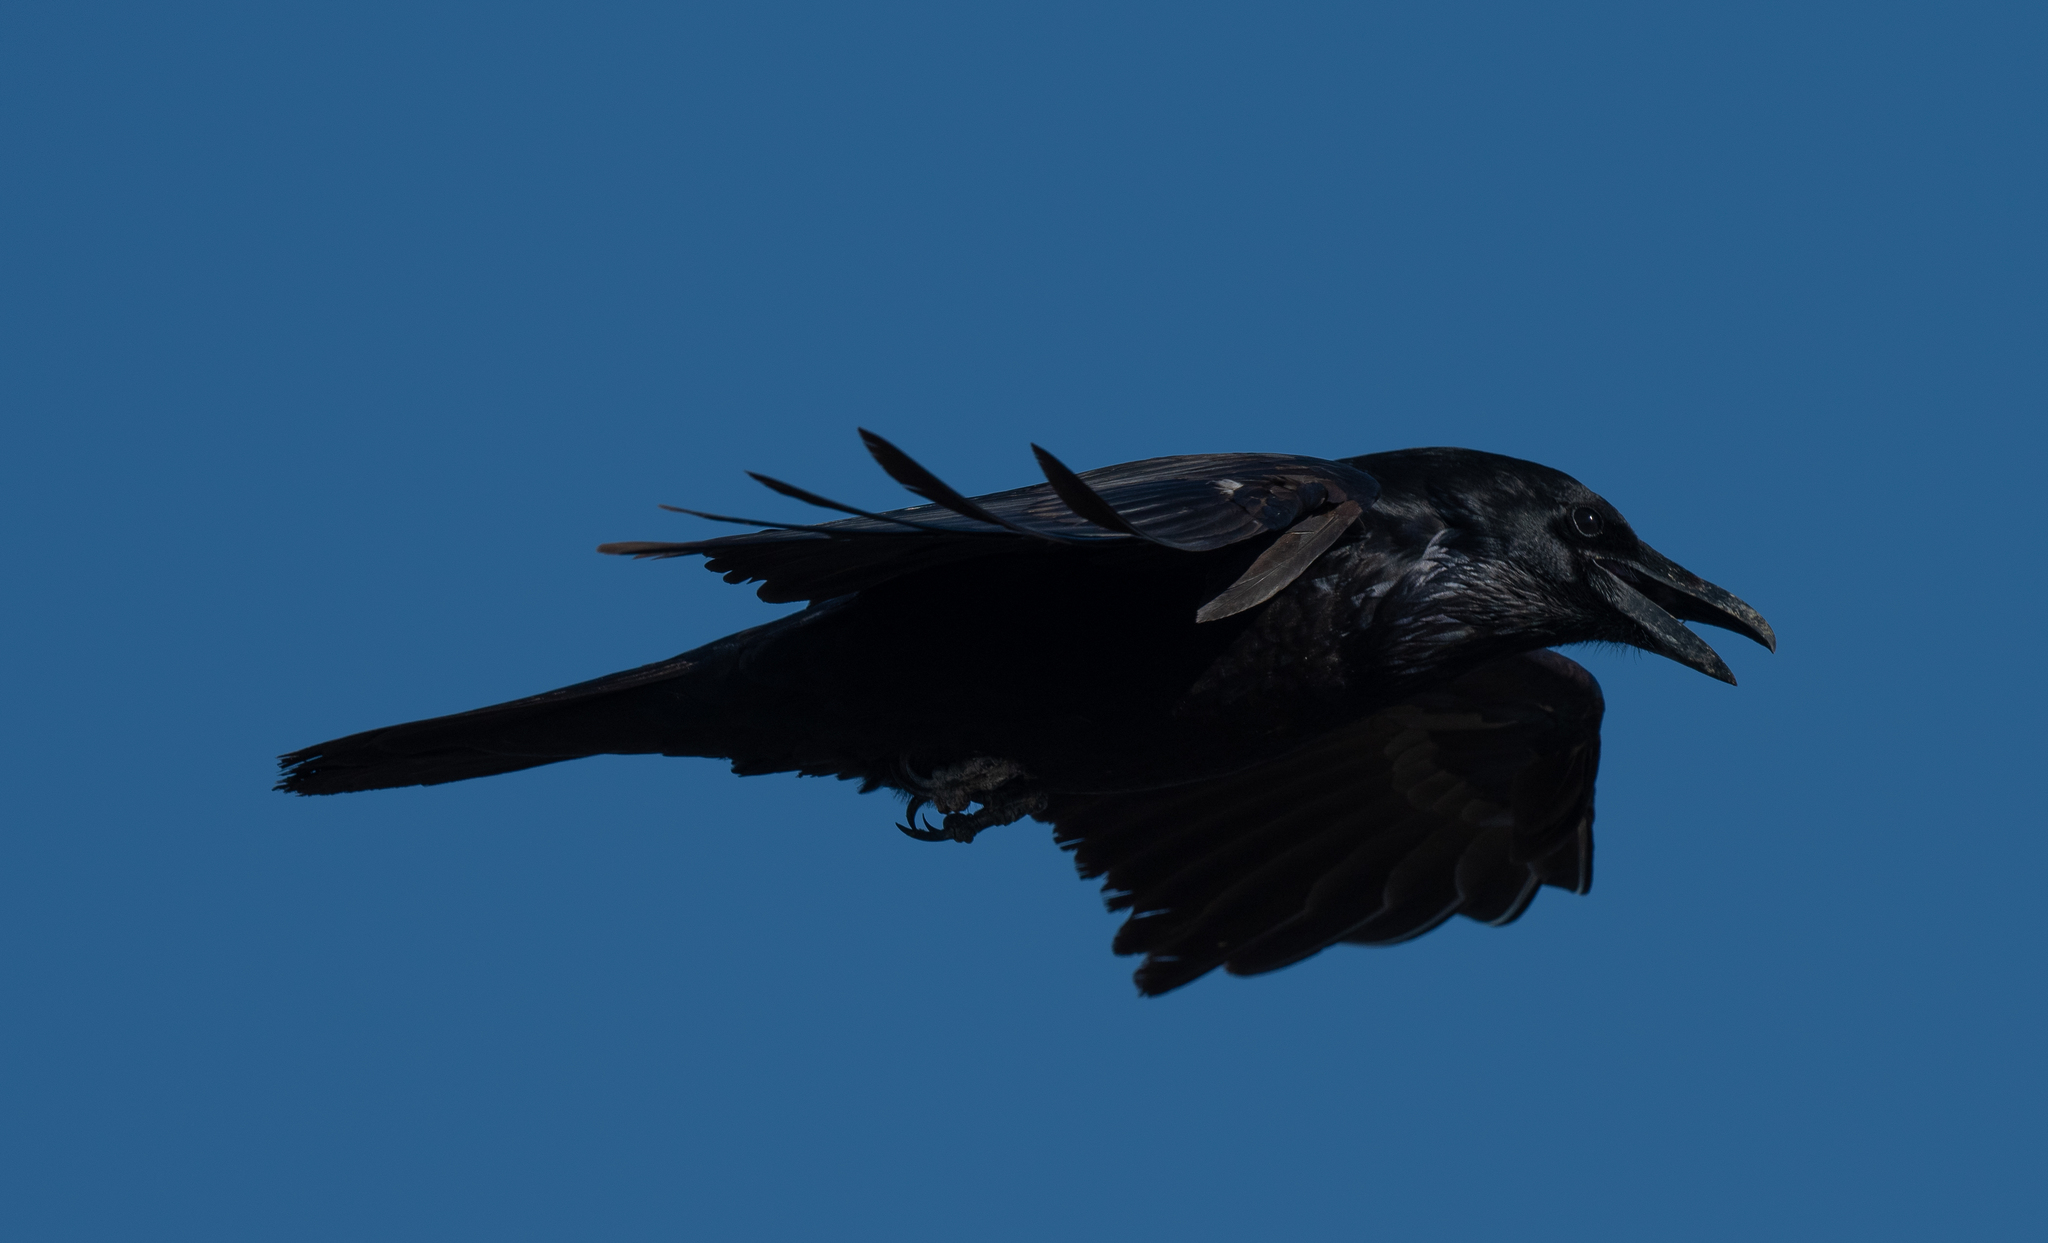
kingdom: Animalia
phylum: Chordata
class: Aves
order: Passeriformes
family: Corvidae
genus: Corvus
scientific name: Corvus corax
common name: Common raven
